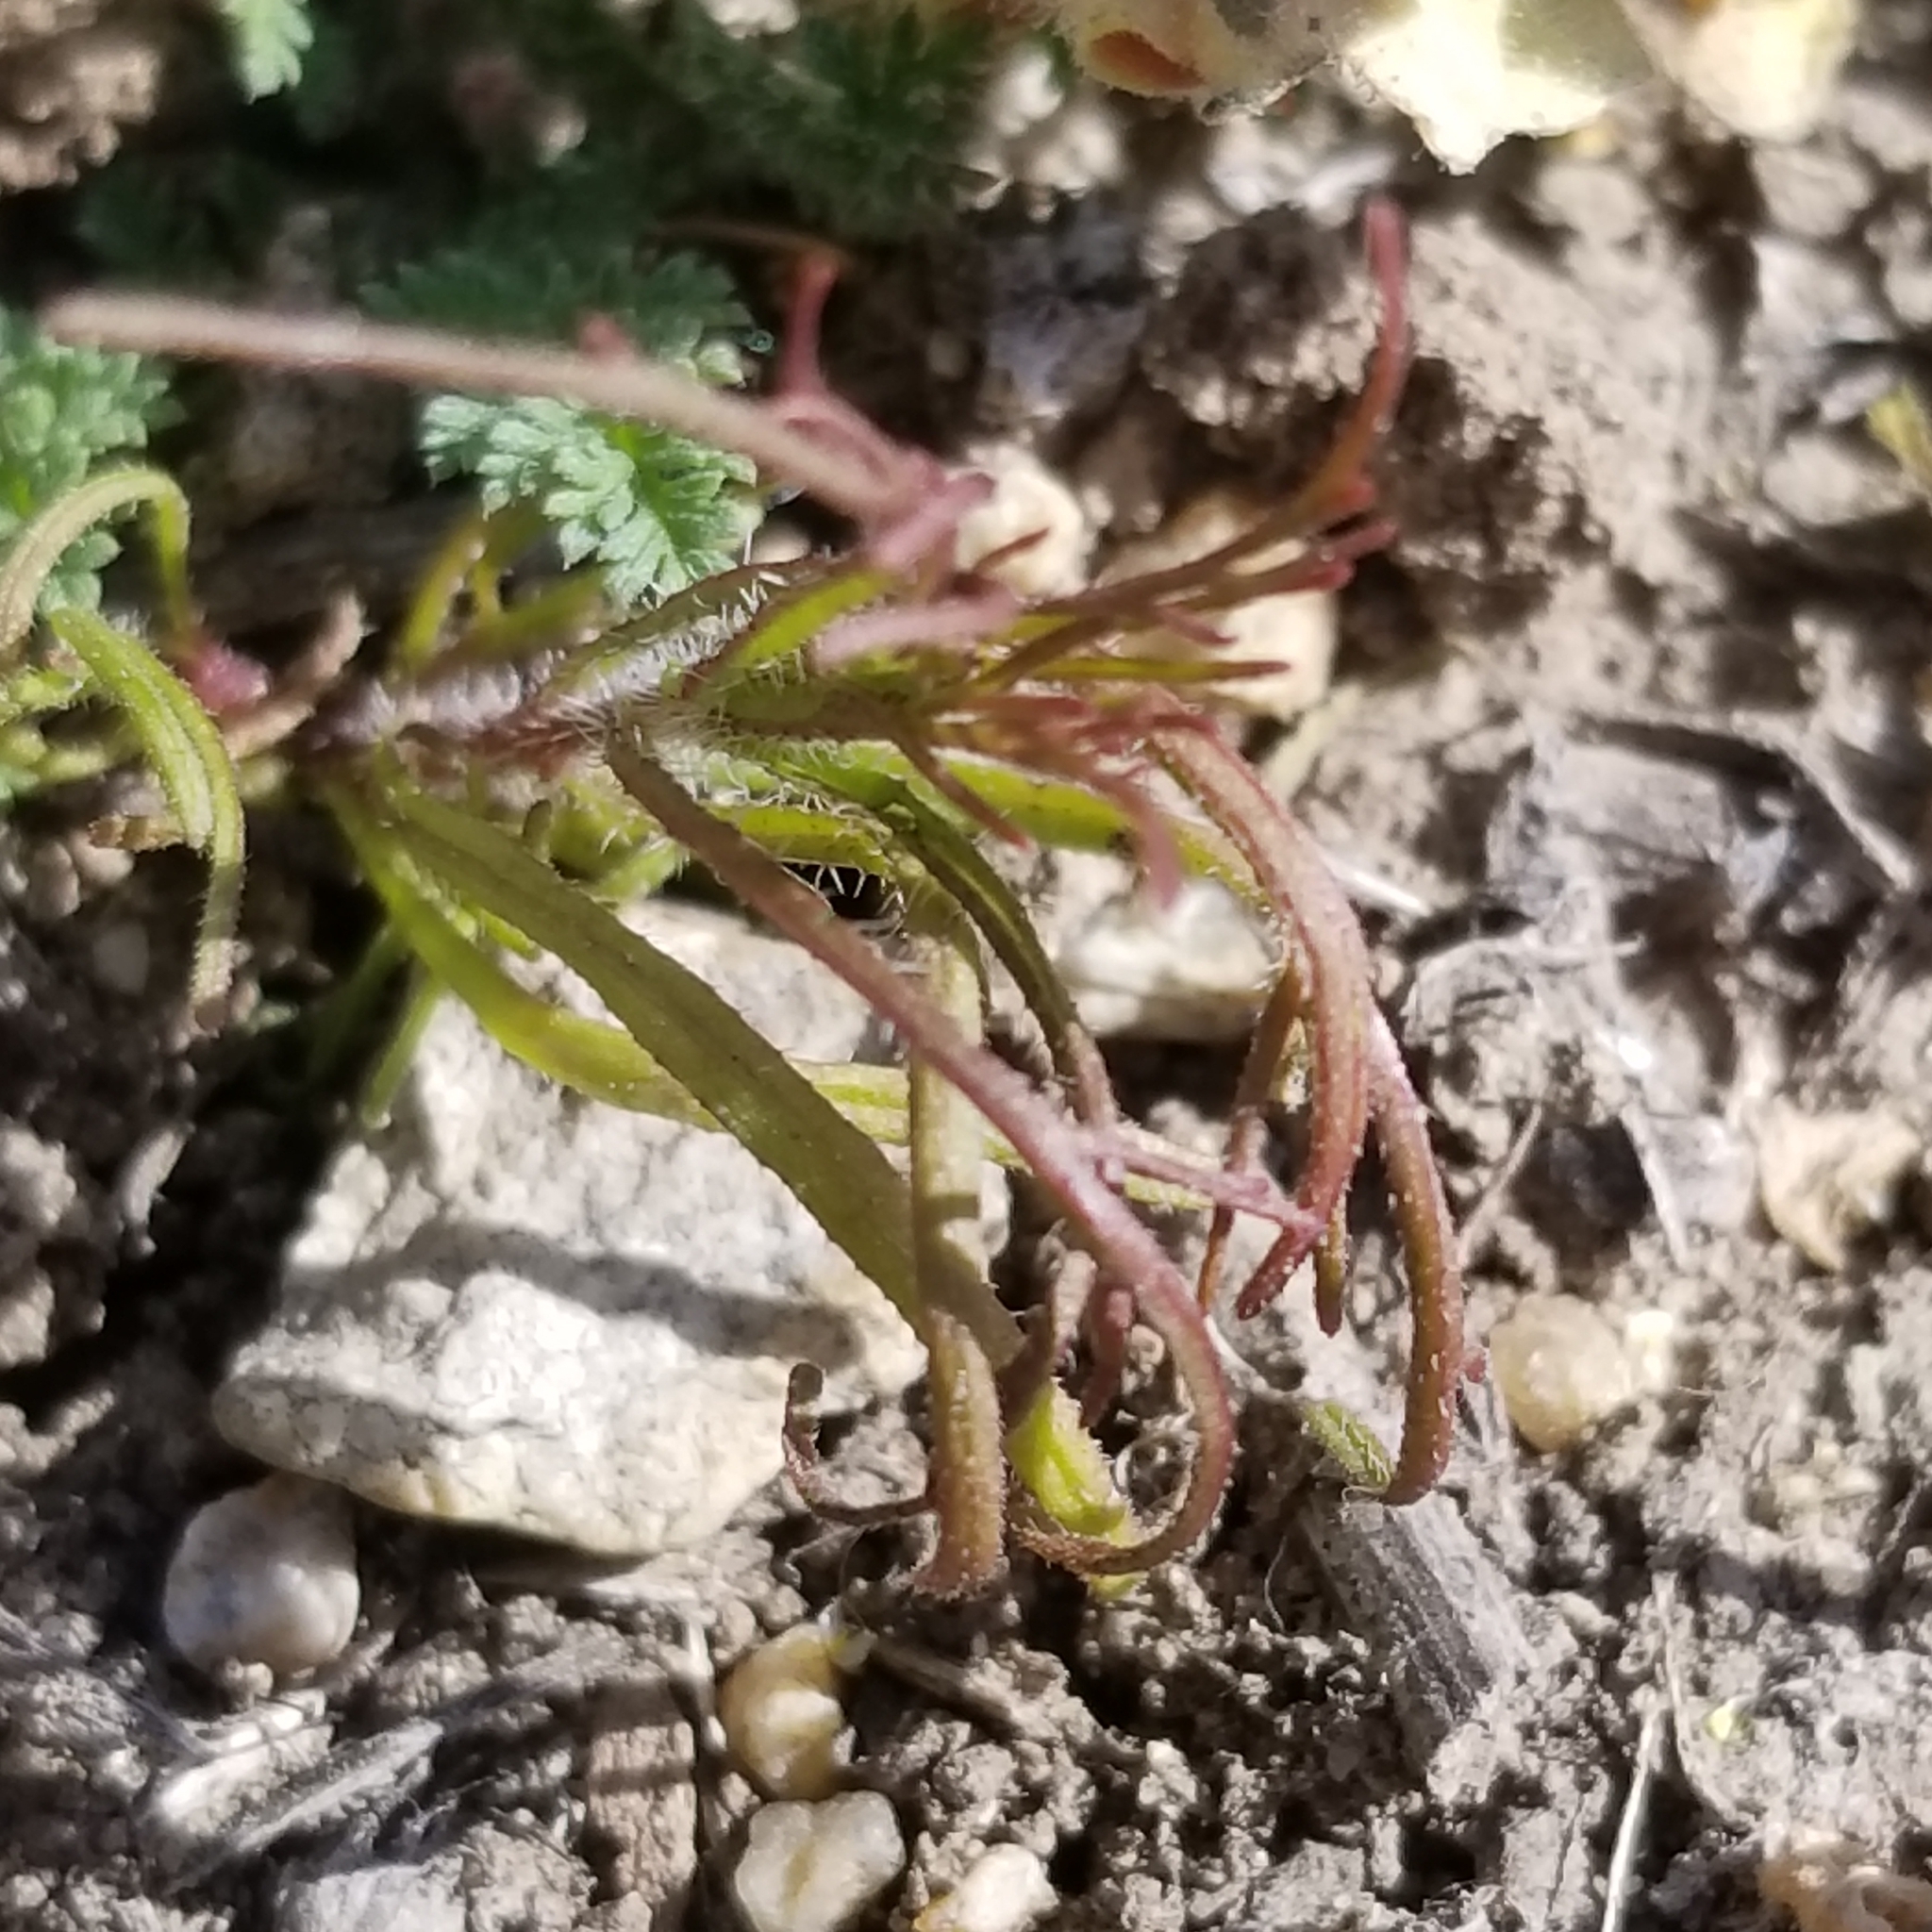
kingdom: Plantae
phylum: Tracheophyta
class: Magnoliopsida
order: Lamiales
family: Orobanchaceae
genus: Dicranostegia
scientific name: Dicranostegia orcuttiana
